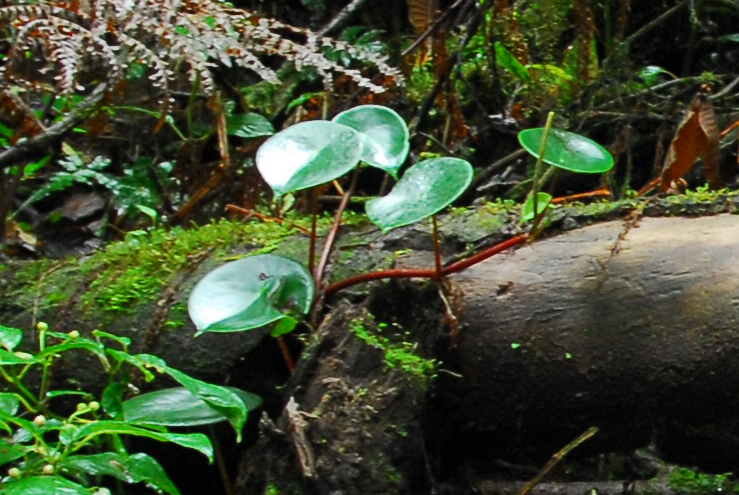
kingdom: Plantae
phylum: Tracheophyta
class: Magnoliopsida
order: Piperales
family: Piperaceae
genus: Peperomia
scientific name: Peperomia hernandiifolia
